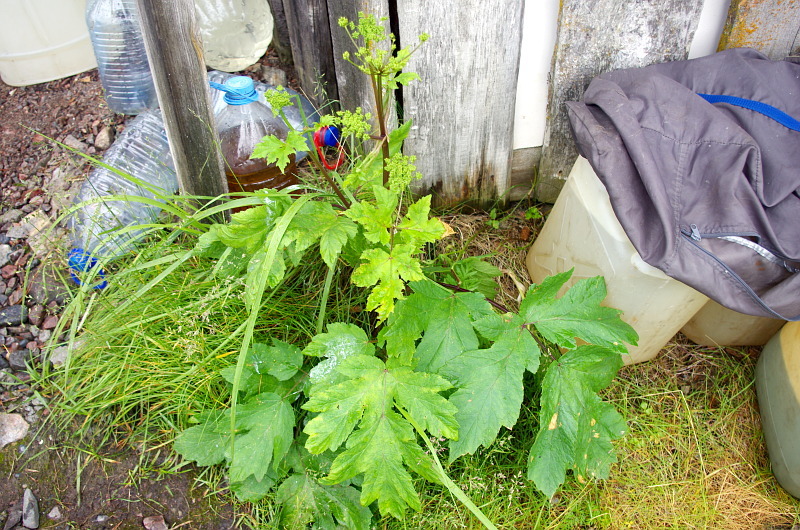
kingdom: Plantae
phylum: Tracheophyta
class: Magnoliopsida
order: Apiales
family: Apiaceae
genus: Heracleum
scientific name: Heracleum sphondylium
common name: Hogweed
